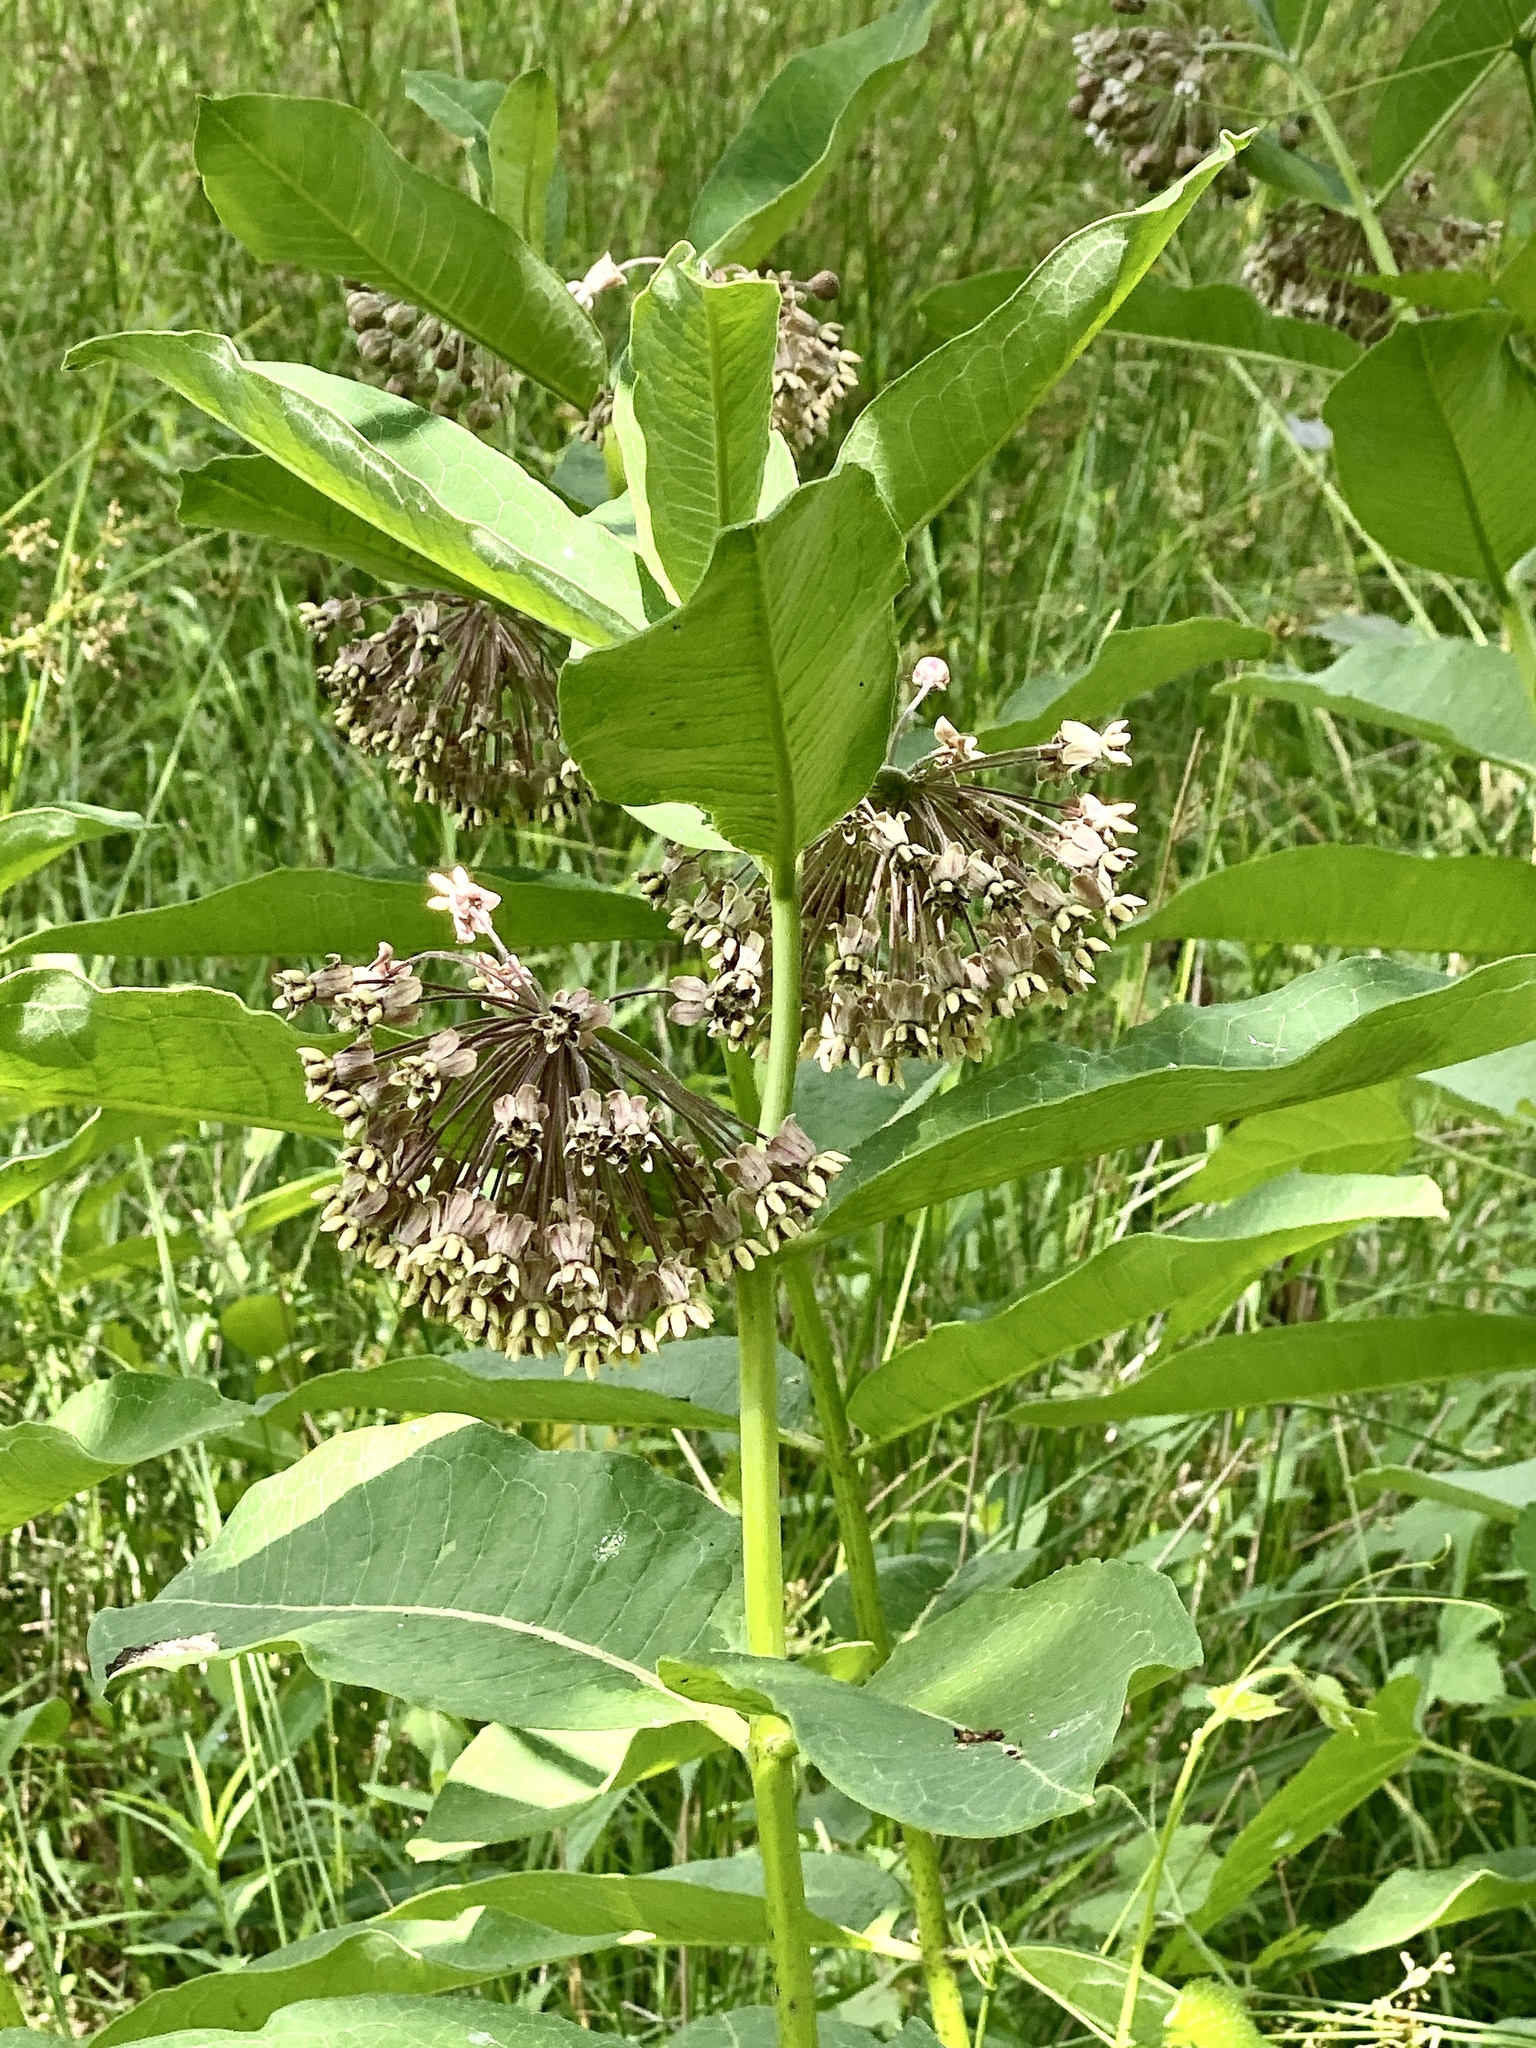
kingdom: Plantae
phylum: Tracheophyta
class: Magnoliopsida
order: Gentianales
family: Apocynaceae
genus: Asclepias
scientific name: Asclepias syriaca
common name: Common milkweed
